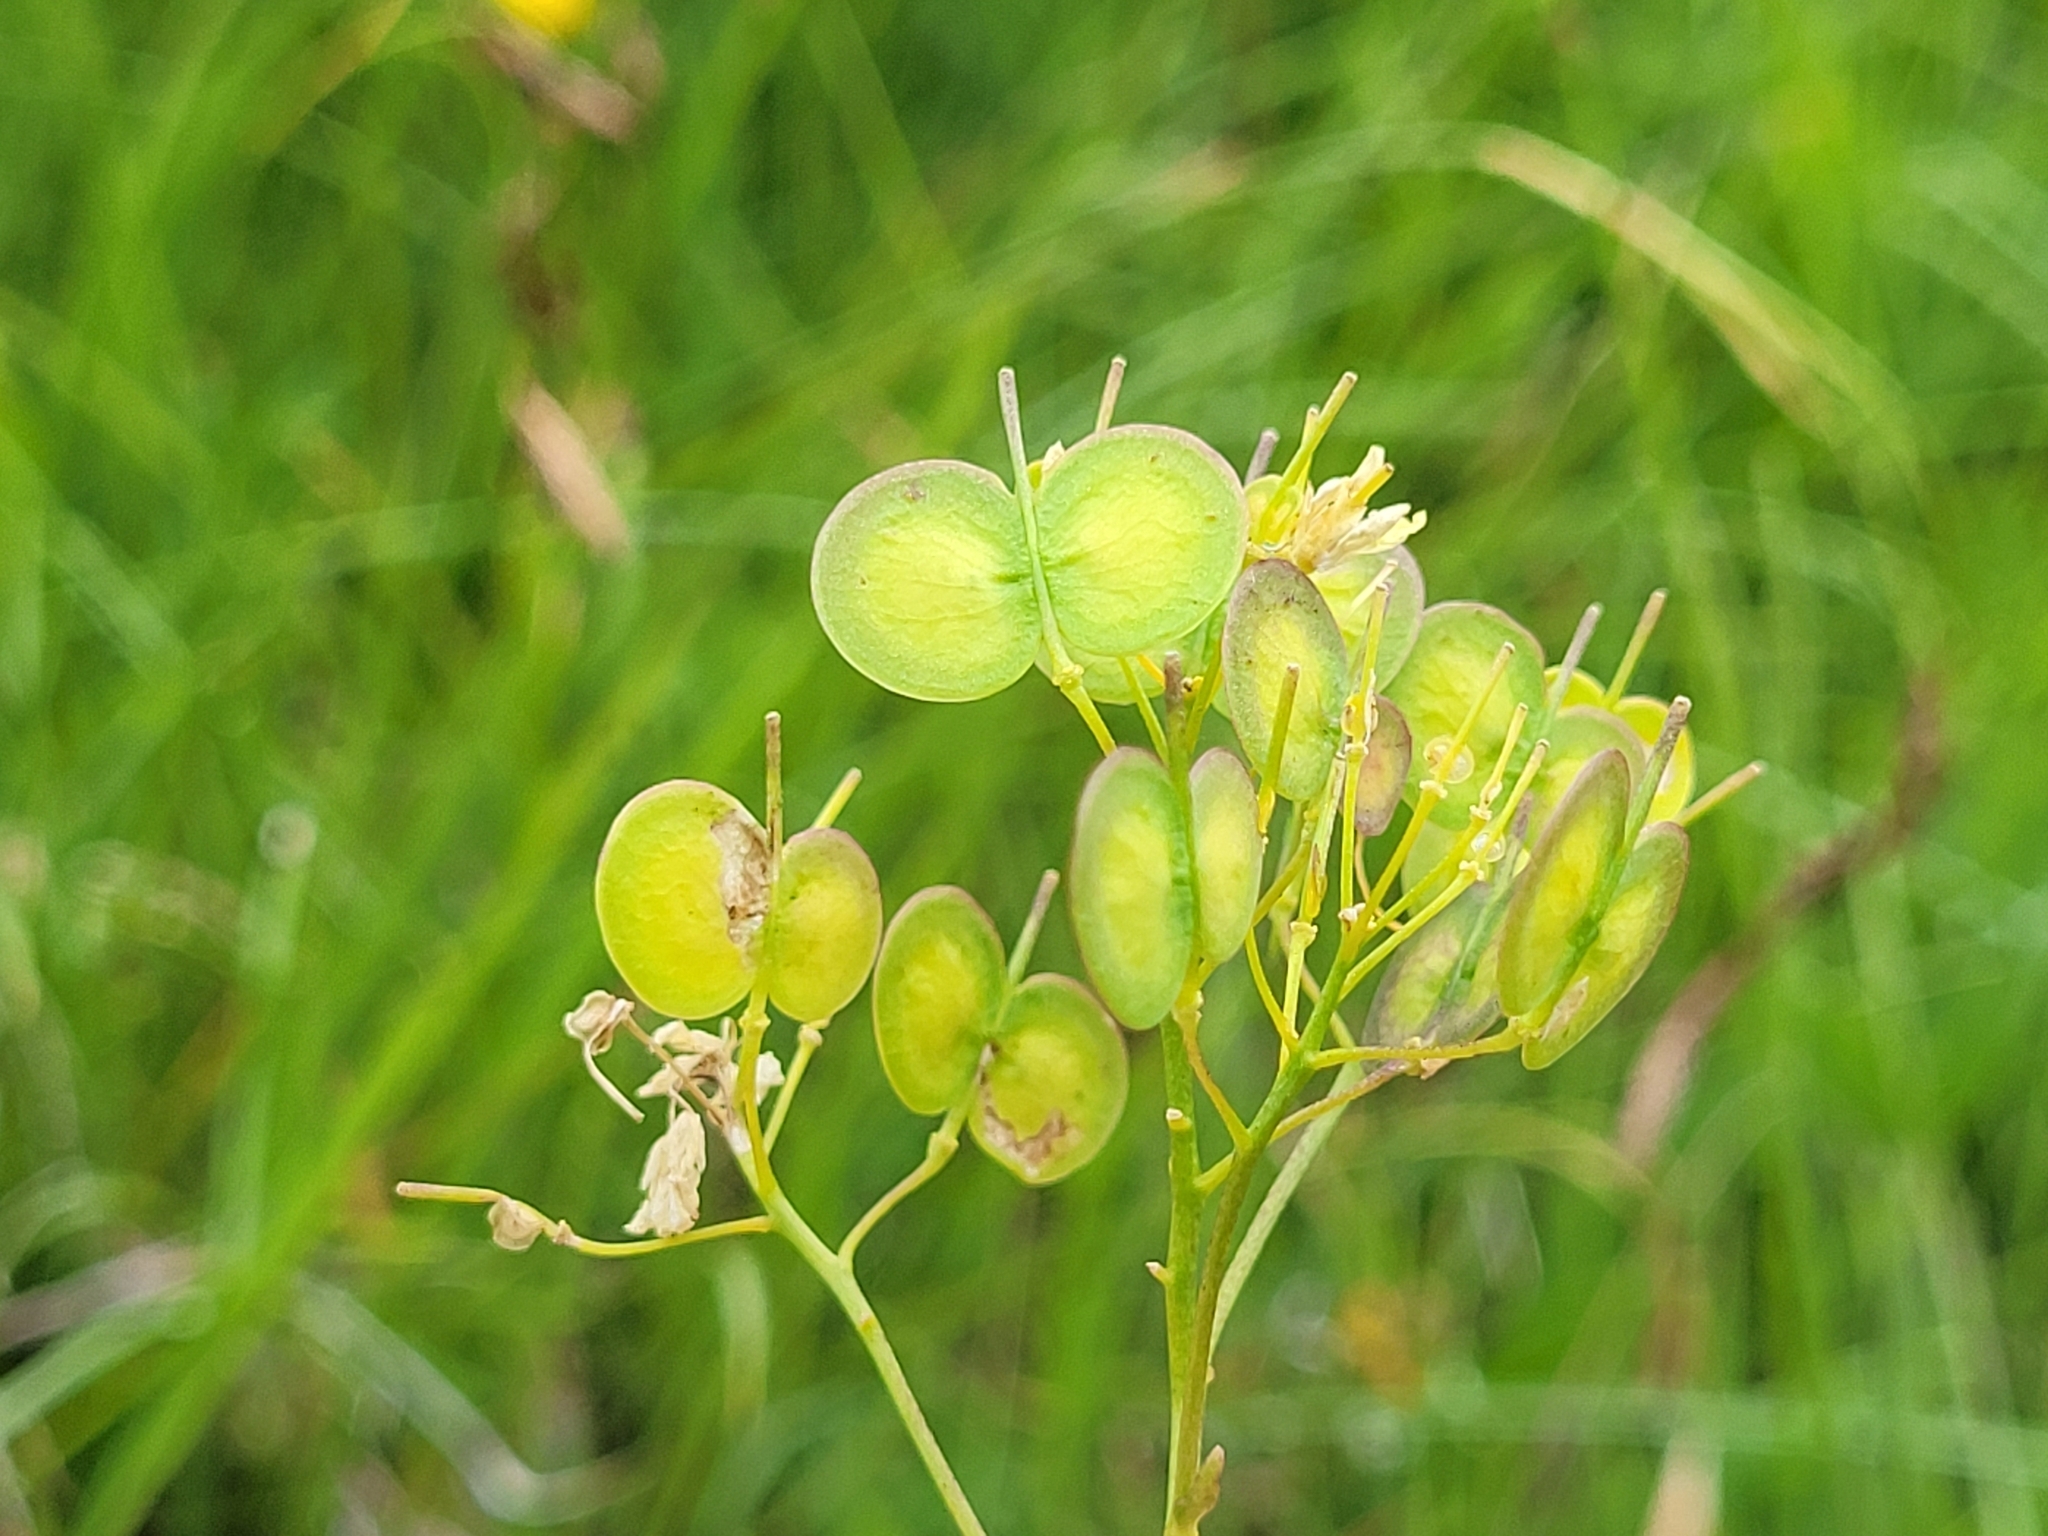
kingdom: Plantae
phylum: Tracheophyta
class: Magnoliopsida
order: Brassicales
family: Brassicaceae
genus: Biscutella
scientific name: Biscutella laevigata
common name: Buckler mustard
